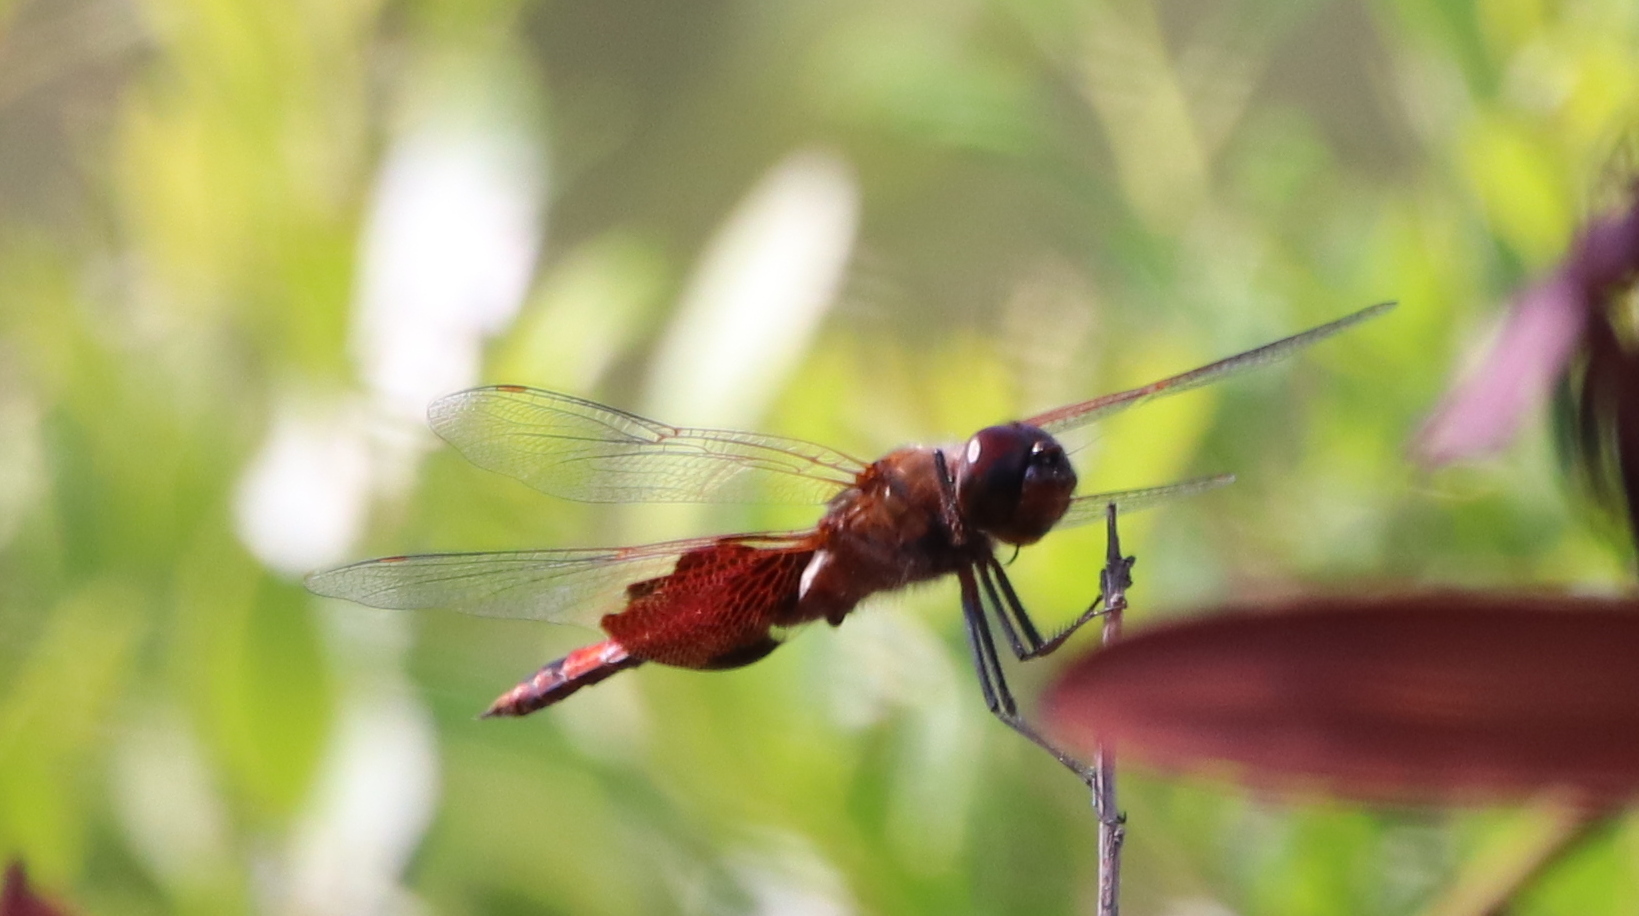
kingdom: Animalia
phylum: Arthropoda
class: Insecta
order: Odonata
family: Libellulidae
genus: Tramea
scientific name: Tramea carolina
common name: Carolina saddlebags
